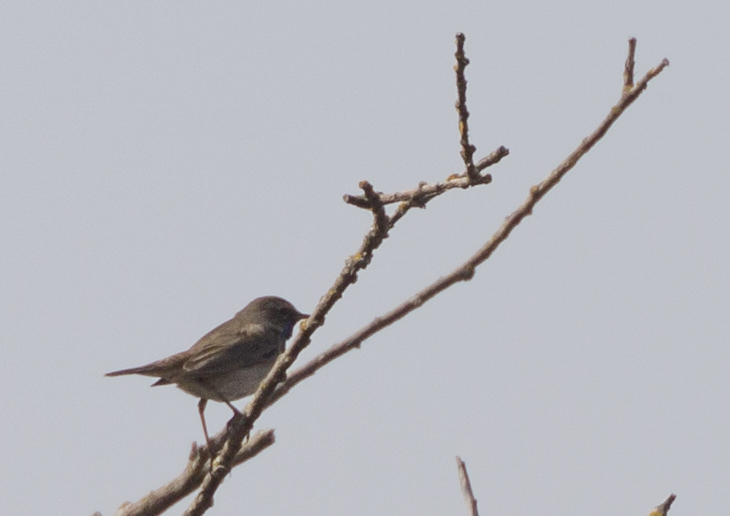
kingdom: Animalia
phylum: Chordata
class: Aves
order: Passeriformes
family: Muscicapidae
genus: Luscinia
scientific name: Luscinia svecica
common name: Bluethroat
